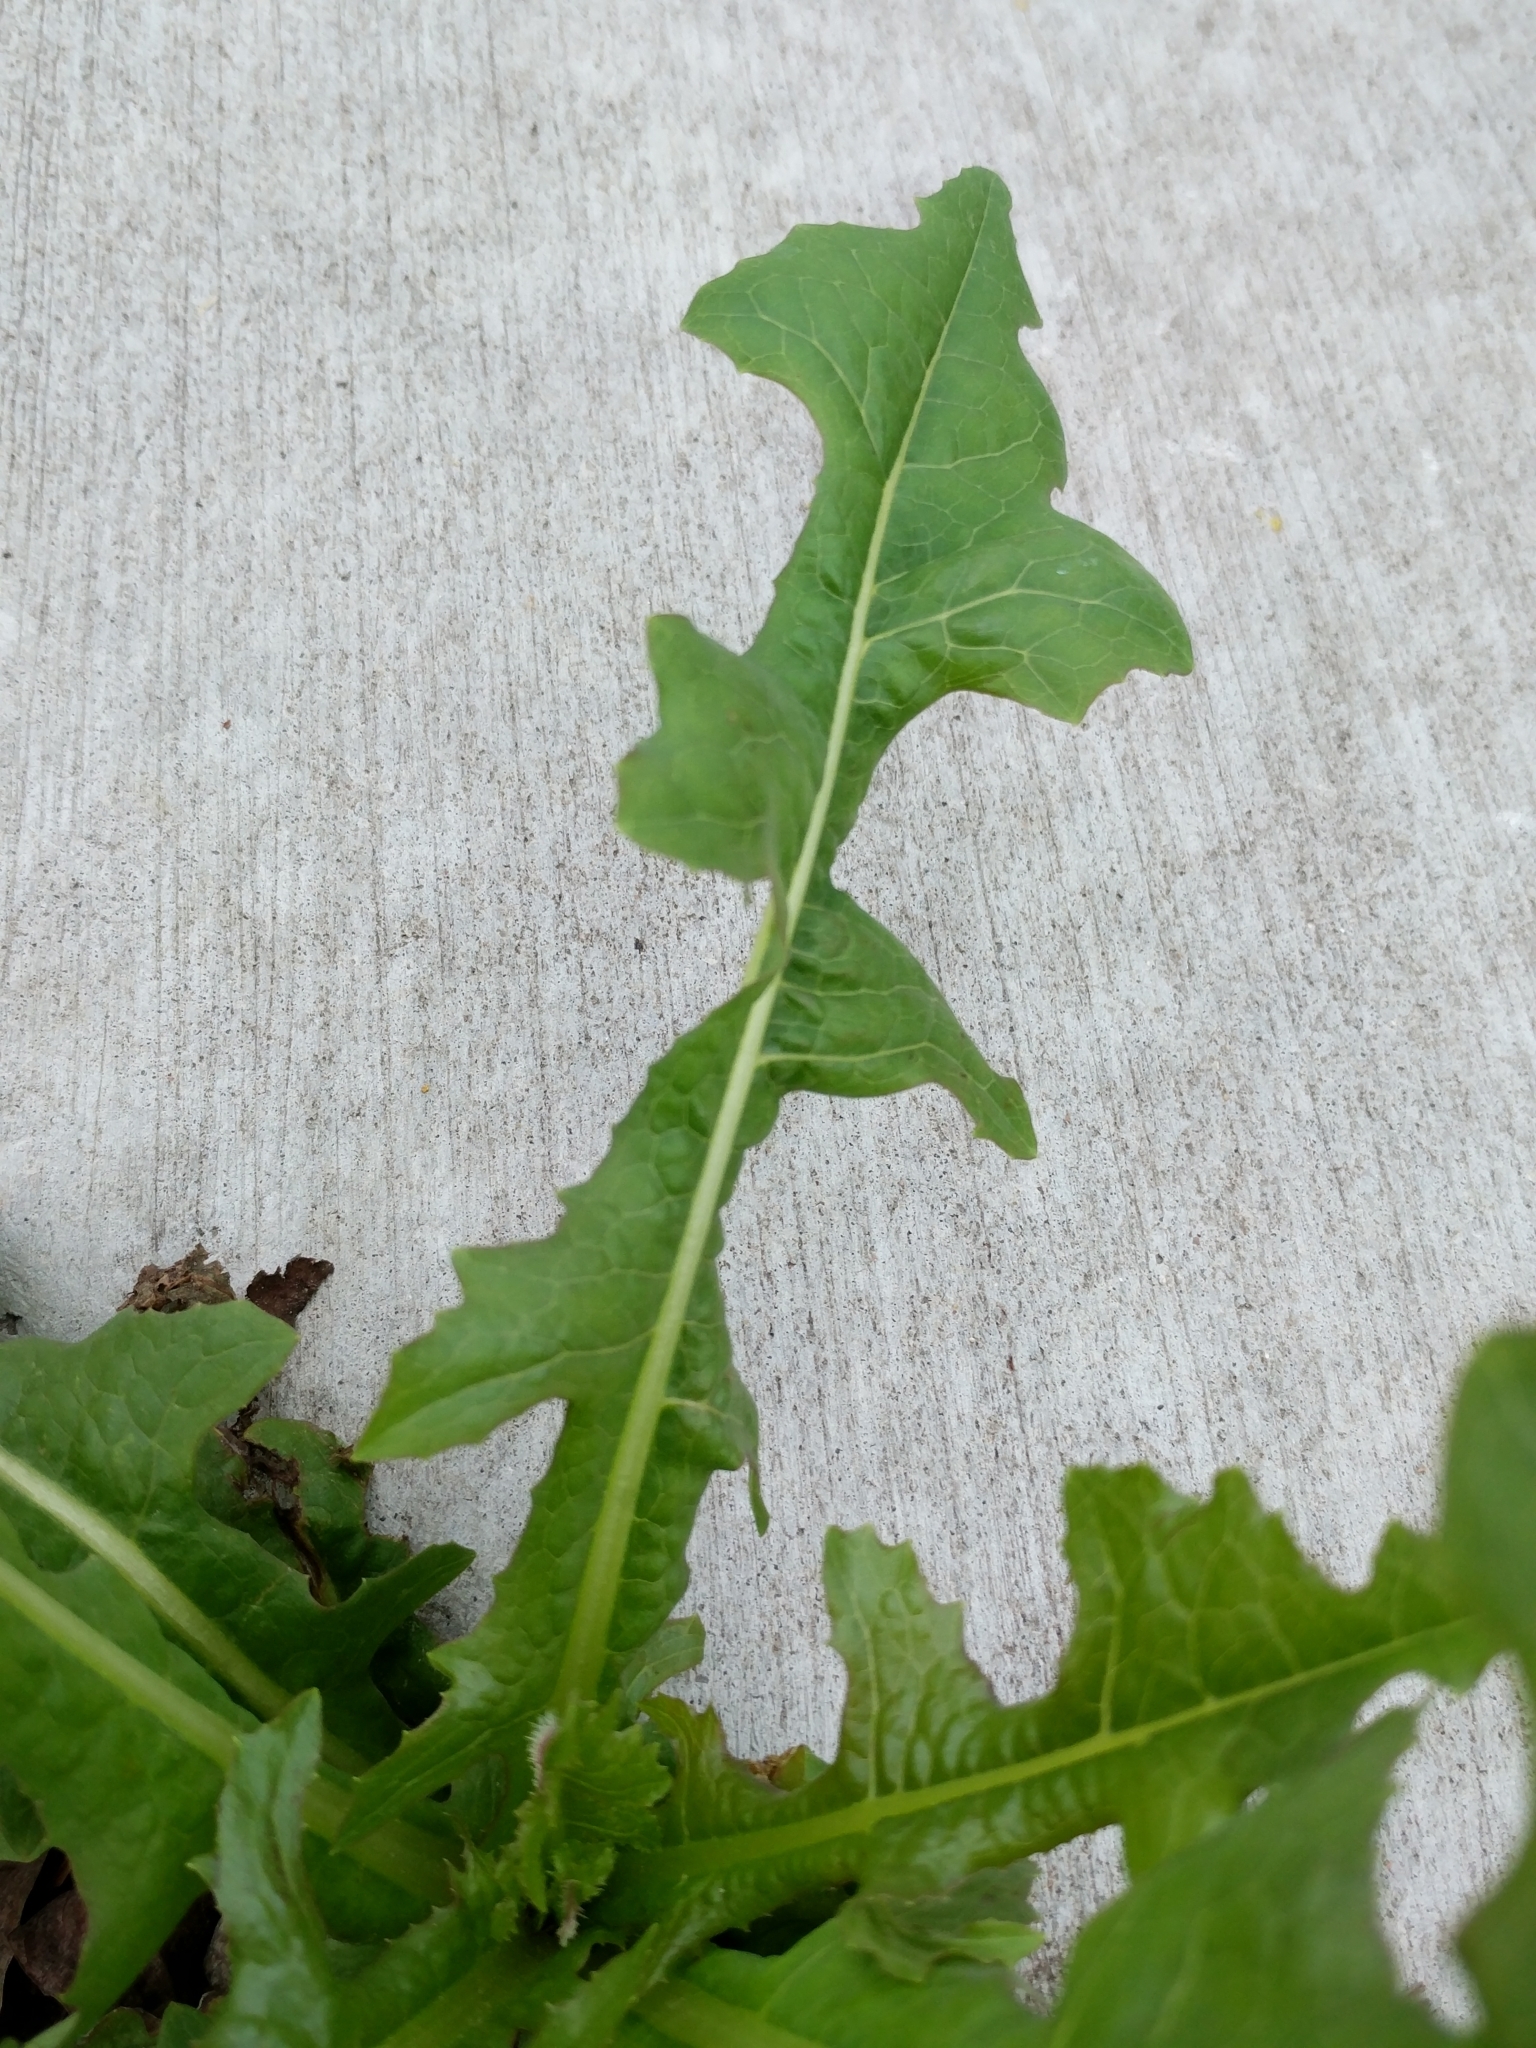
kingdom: Plantae
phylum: Tracheophyta
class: Magnoliopsida
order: Asterales
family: Asteraceae
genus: Lactuca
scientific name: Lactuca serriola
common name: Prickly lettuce
